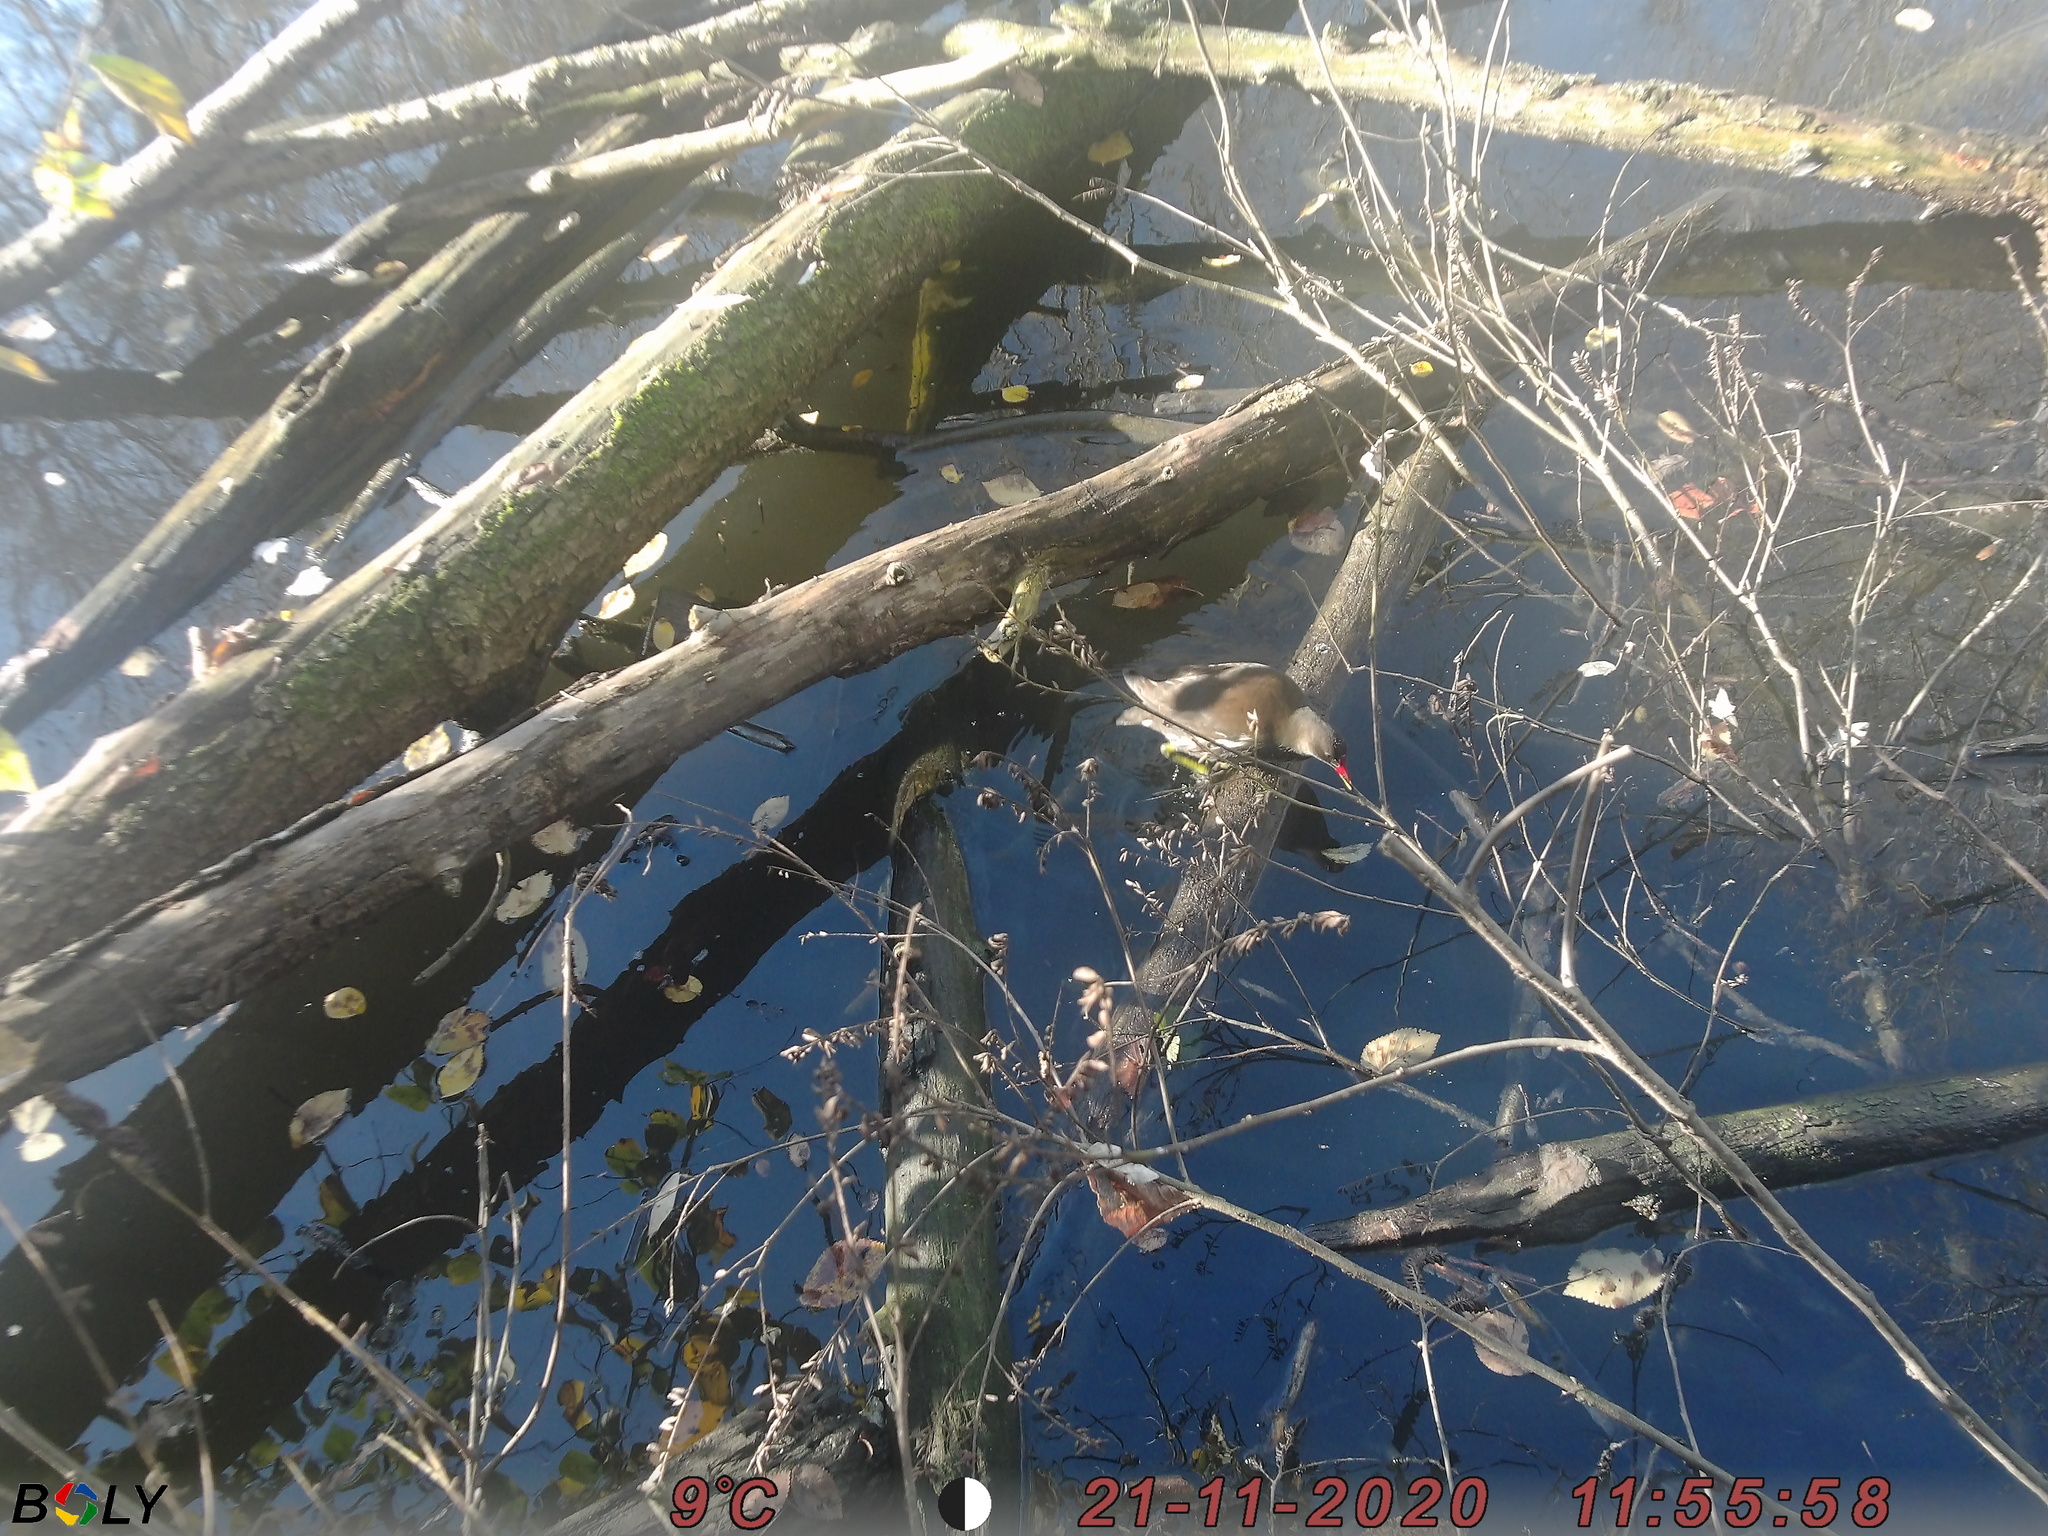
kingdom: Animalia
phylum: Chordata
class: Aves
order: Gruiformes
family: Rallidae
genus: Gallinula
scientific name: Gallinula chloropus
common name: Common moorhen
